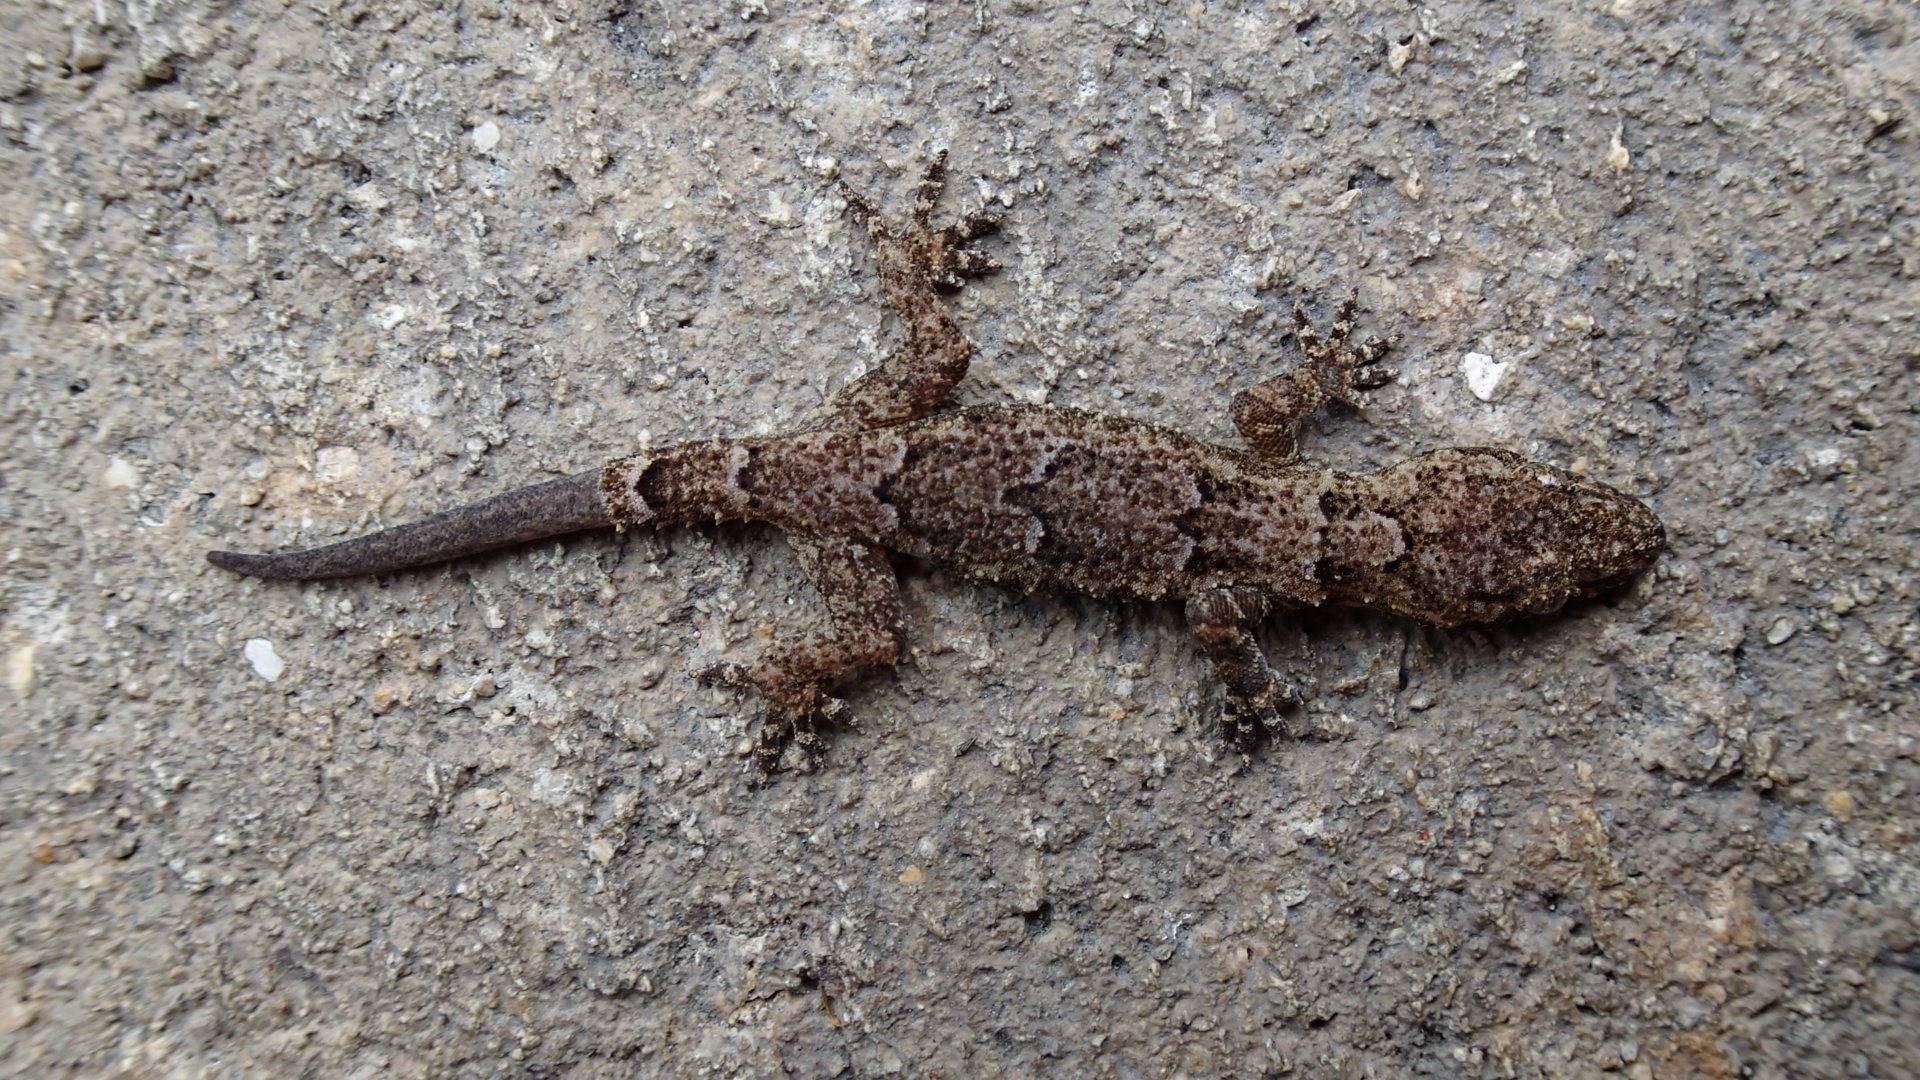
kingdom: Animalia
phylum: Chordata
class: Squamata
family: Gekkonidae
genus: Hemidactylus
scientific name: Hemidactylus mabouia
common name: House gecko
